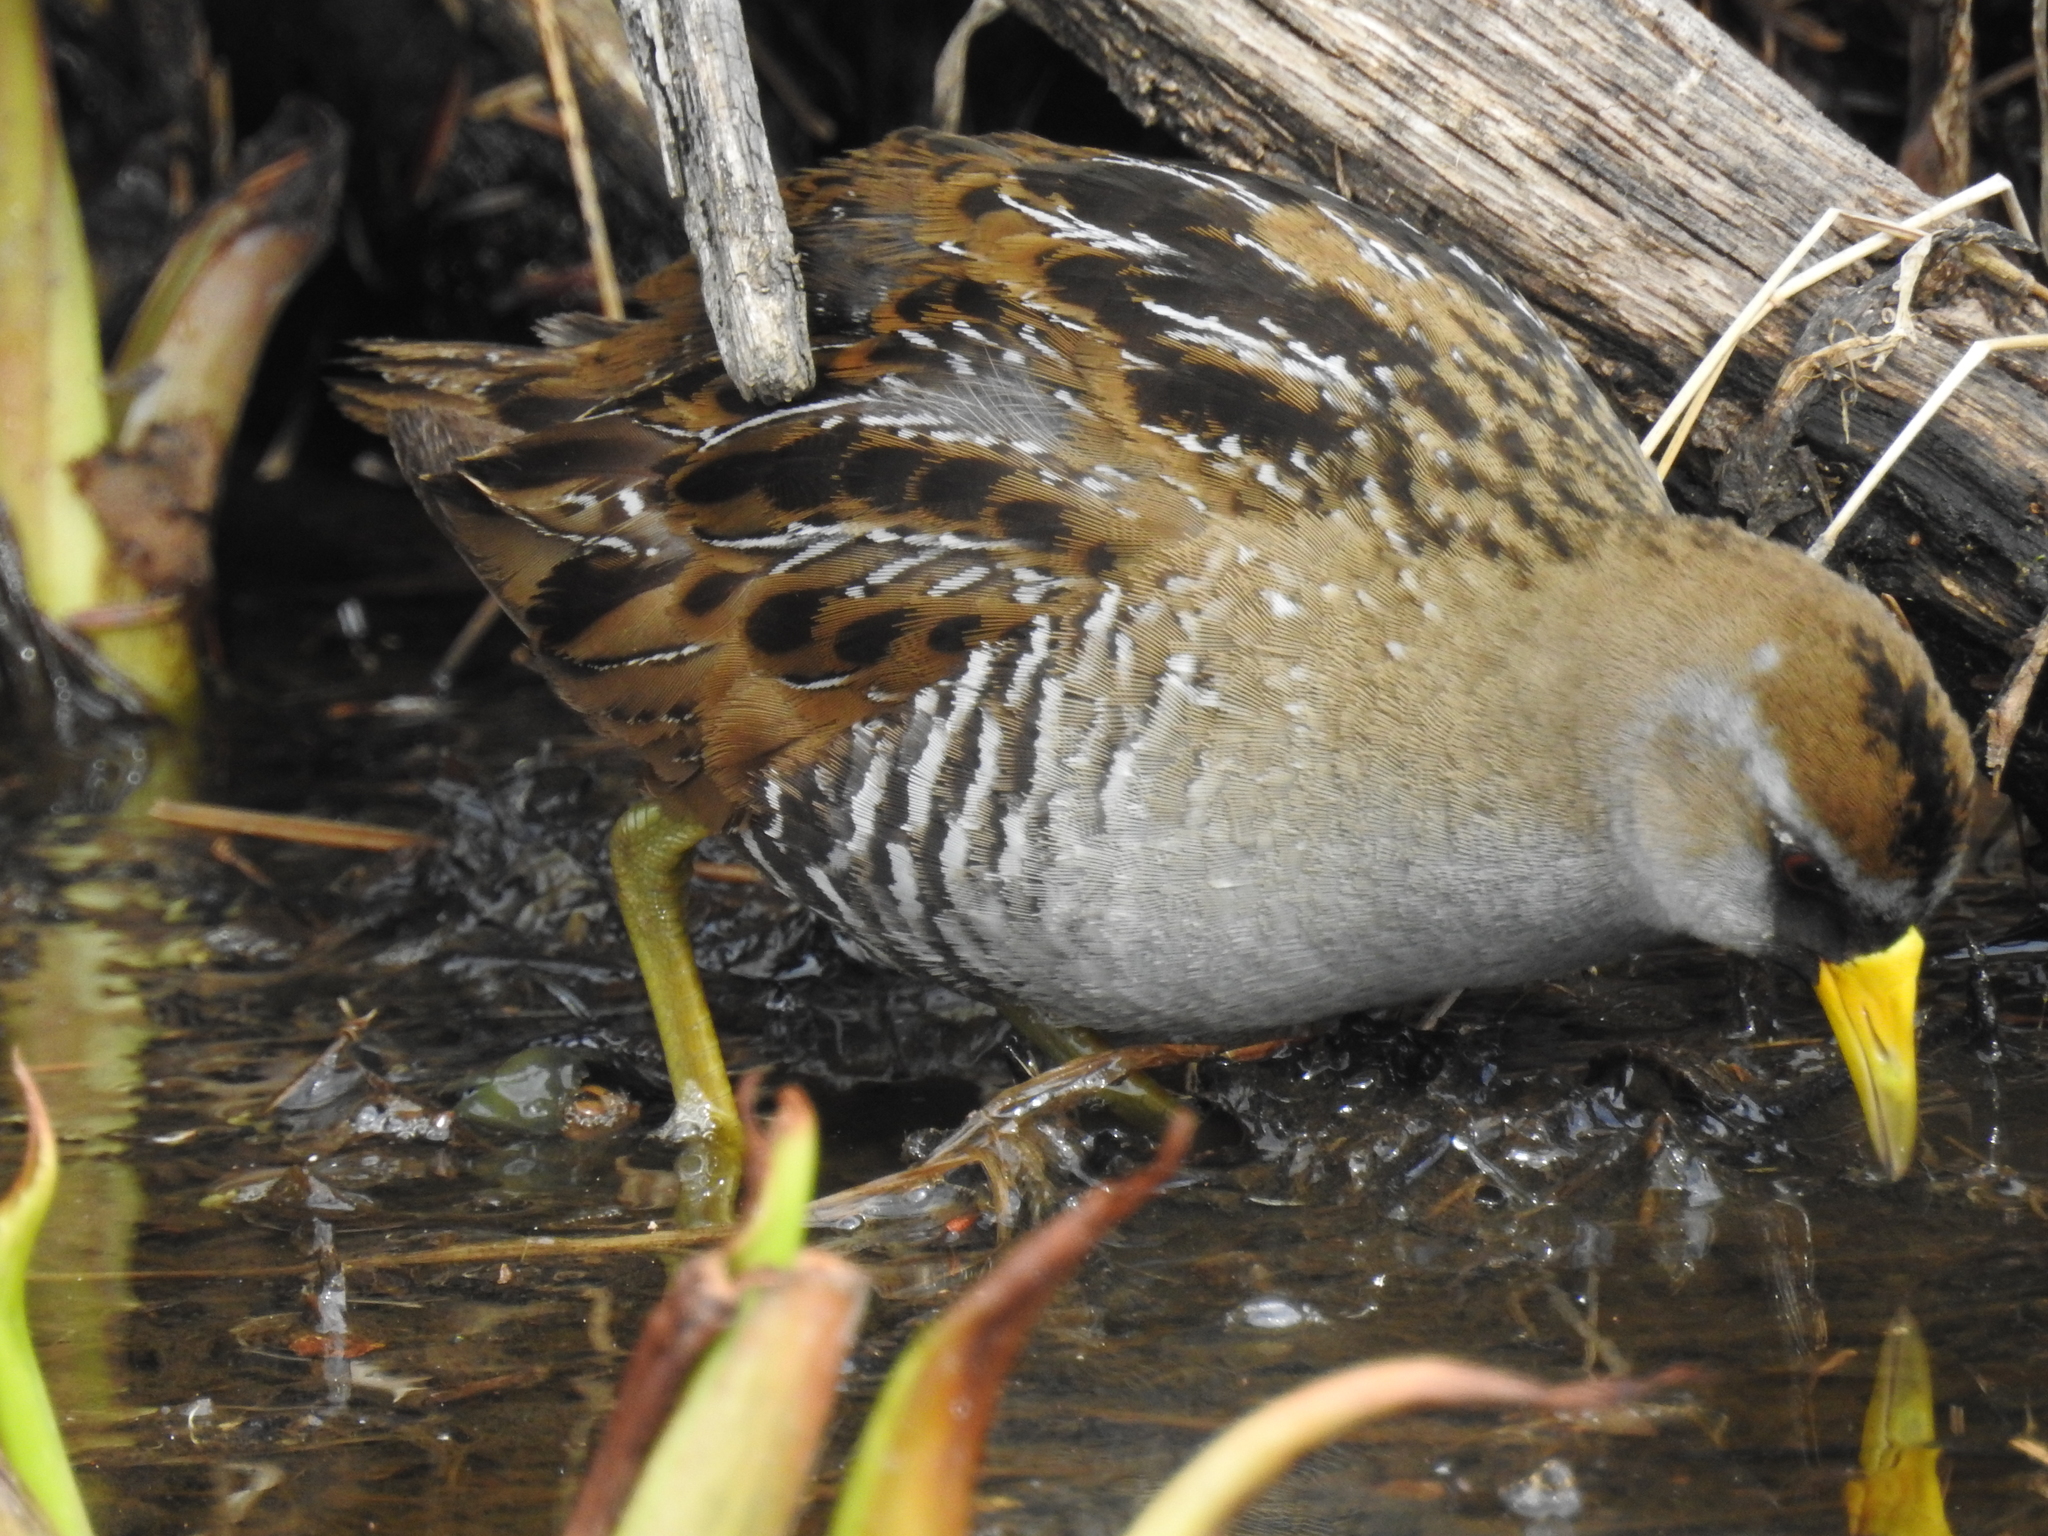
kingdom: Animalia
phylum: Chordata
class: Aves
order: Gruiformes
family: Rallidae
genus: Porzana
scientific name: Porzana carolina
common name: Sora
